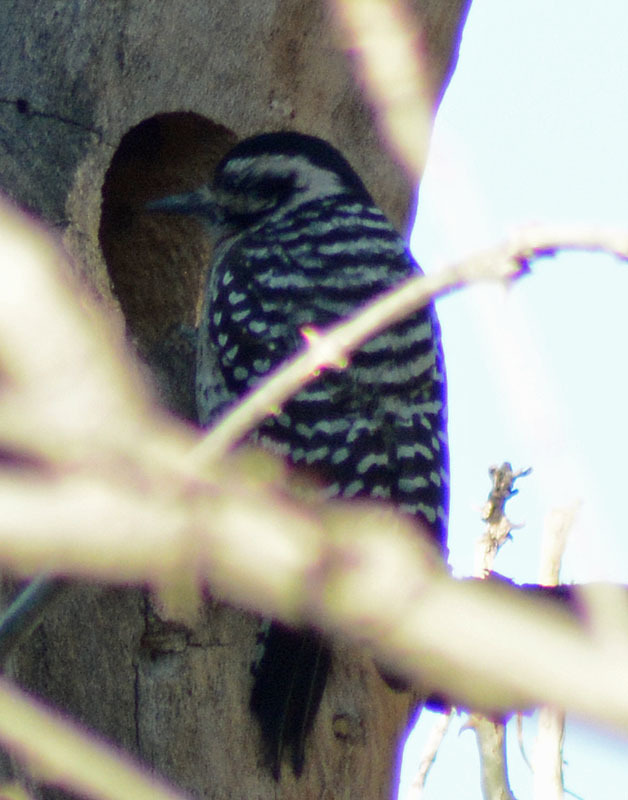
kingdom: Animalia
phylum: Chordata
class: Aves
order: Piciformes
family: Picidae
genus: Dryobates
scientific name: Dryobates scalaris
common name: Ladder-backed woodpecker
